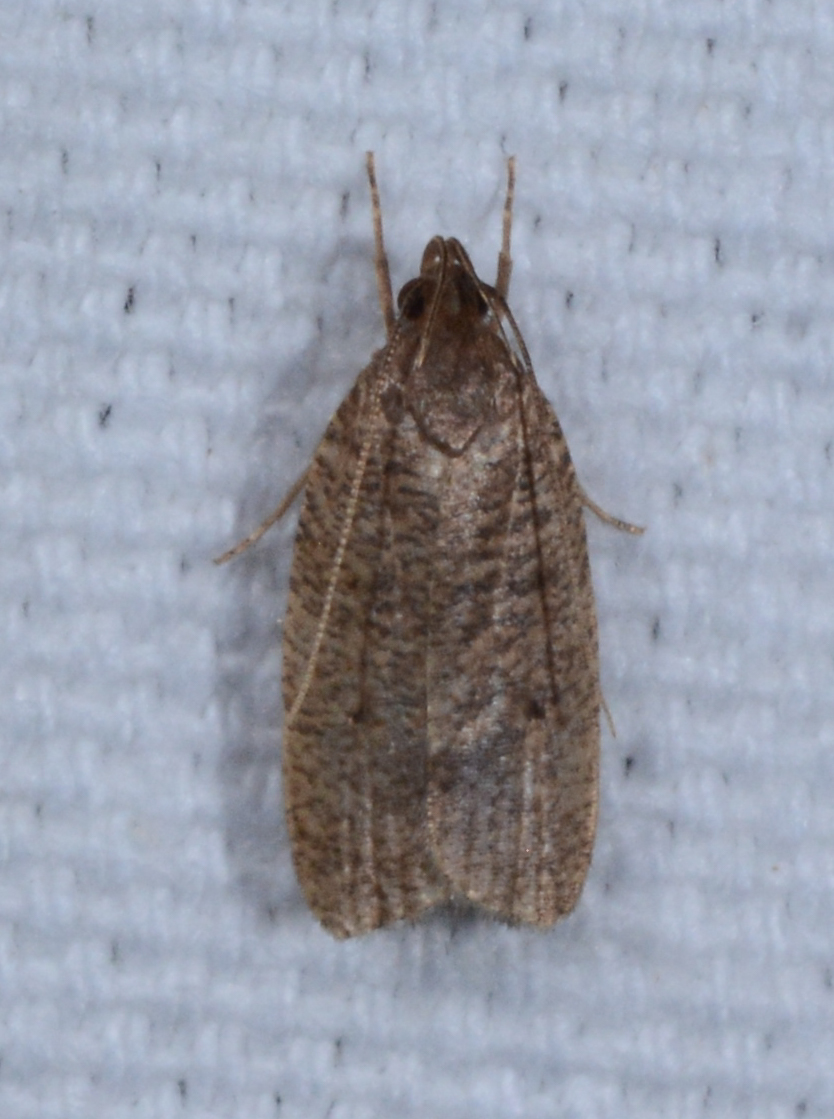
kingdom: Animalia
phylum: Arthropoda
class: Insecta
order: Lepidoptera
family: Depressariidae
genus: Psilocorsis
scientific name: Psilocorsis reflexella
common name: Dotted leaftier moth
